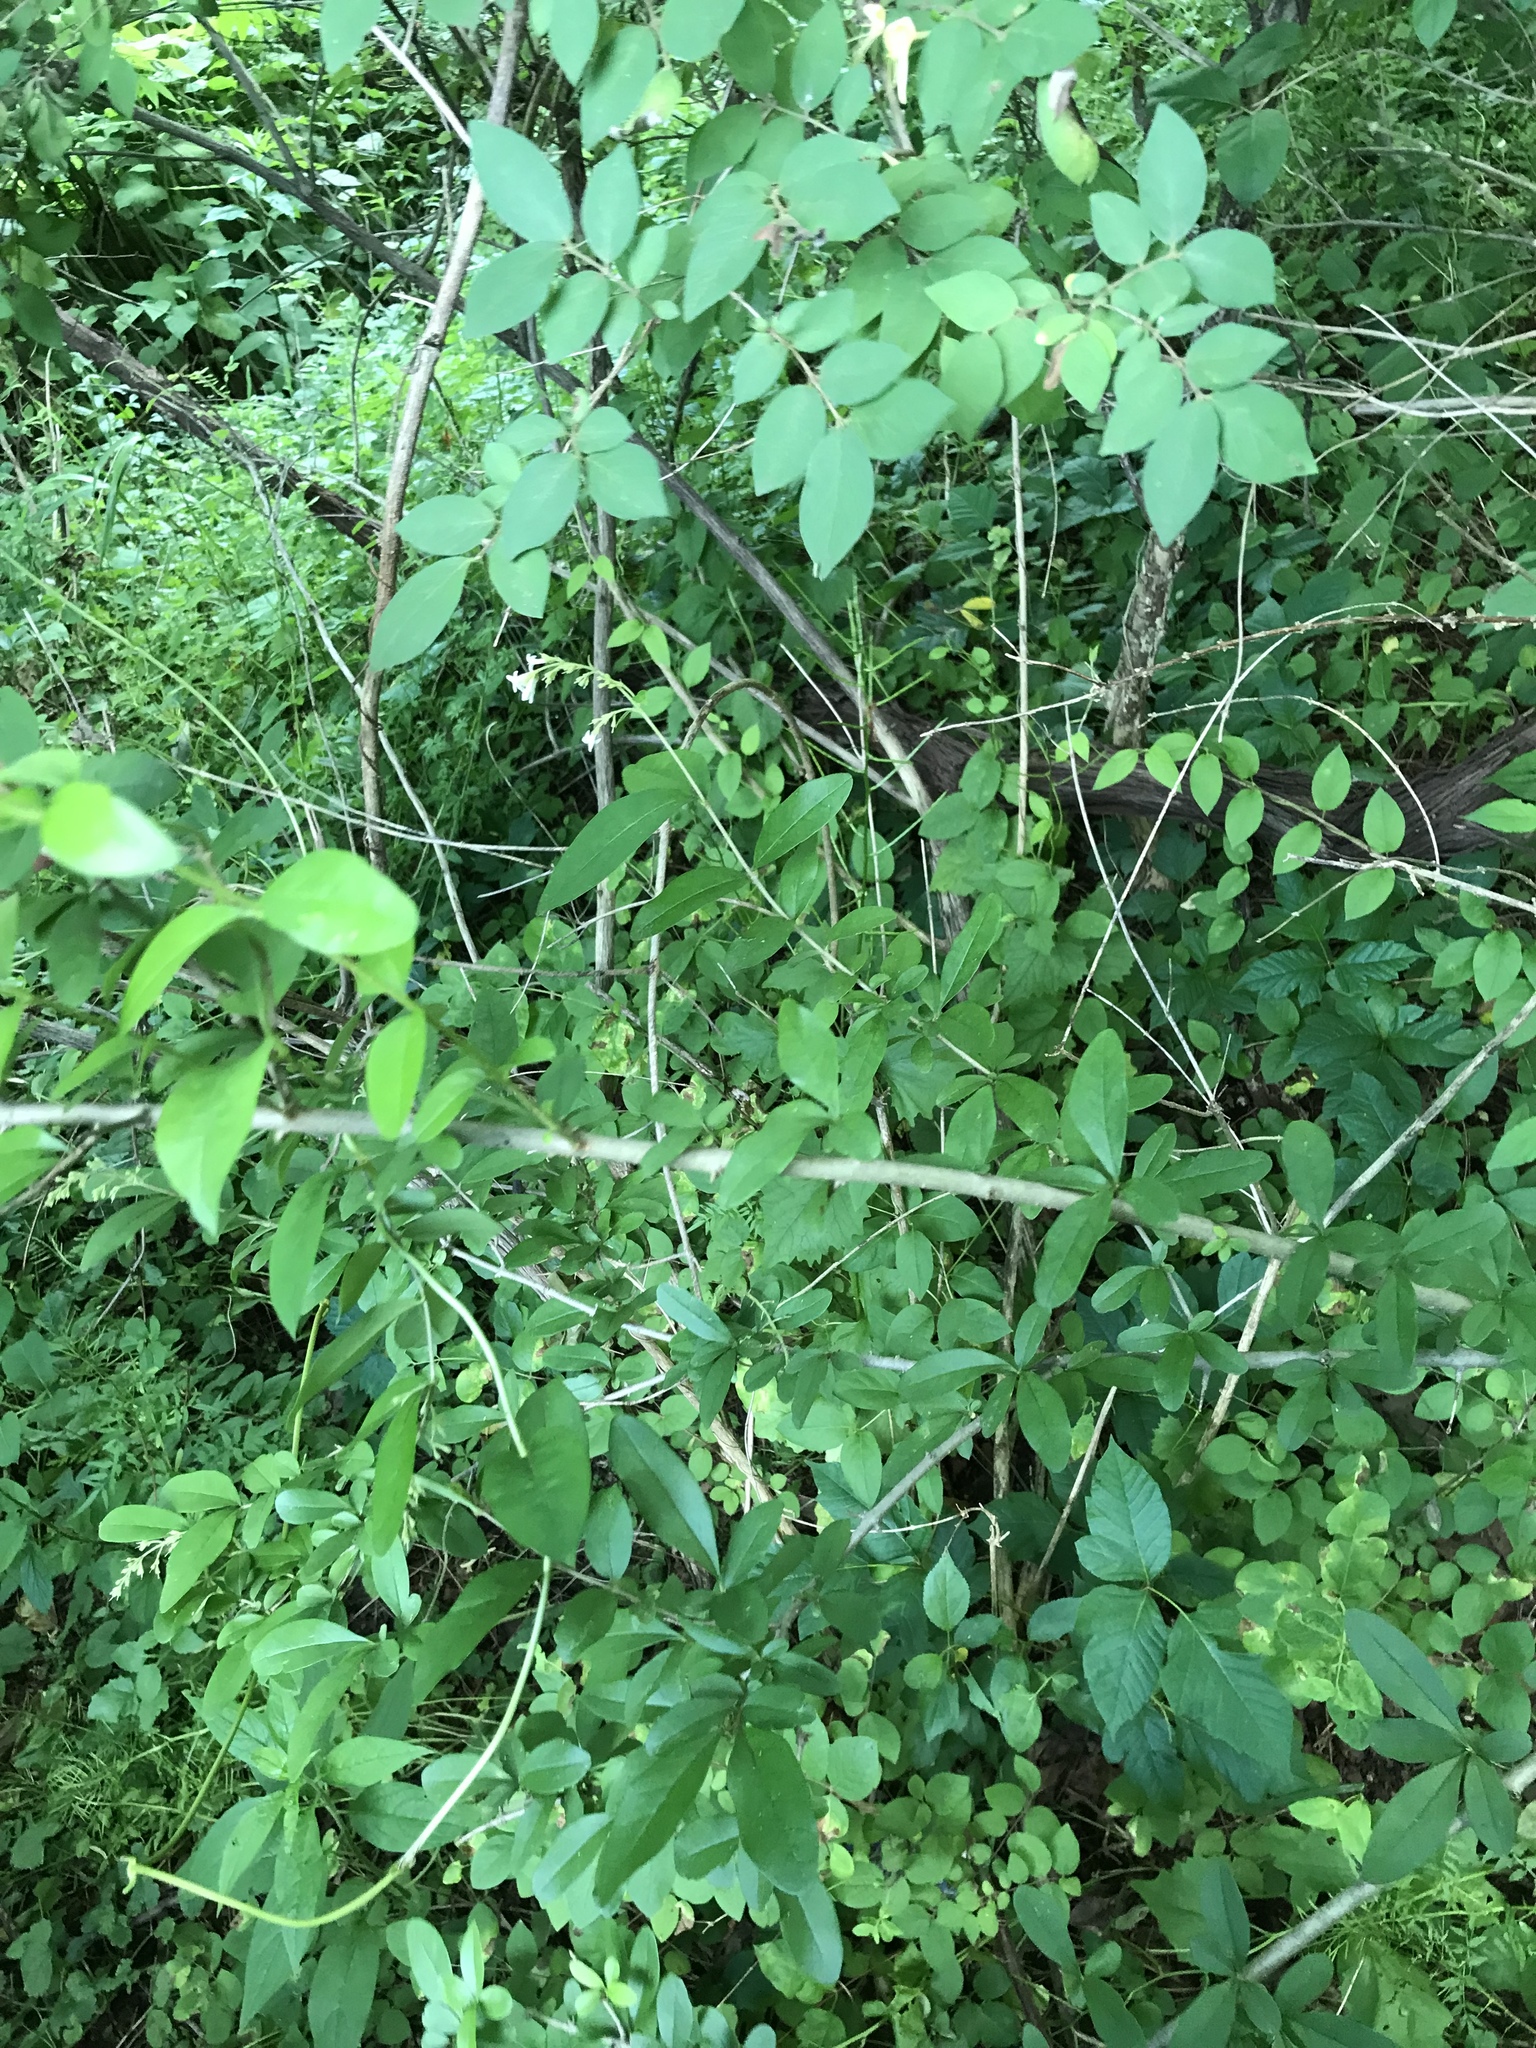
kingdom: Plantae
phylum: Tracheophyta
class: Magnoliopsida
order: Lamiales
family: Oleaceae
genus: Ligustrum
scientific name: Ligustrum obtusifolium
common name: Border privet
